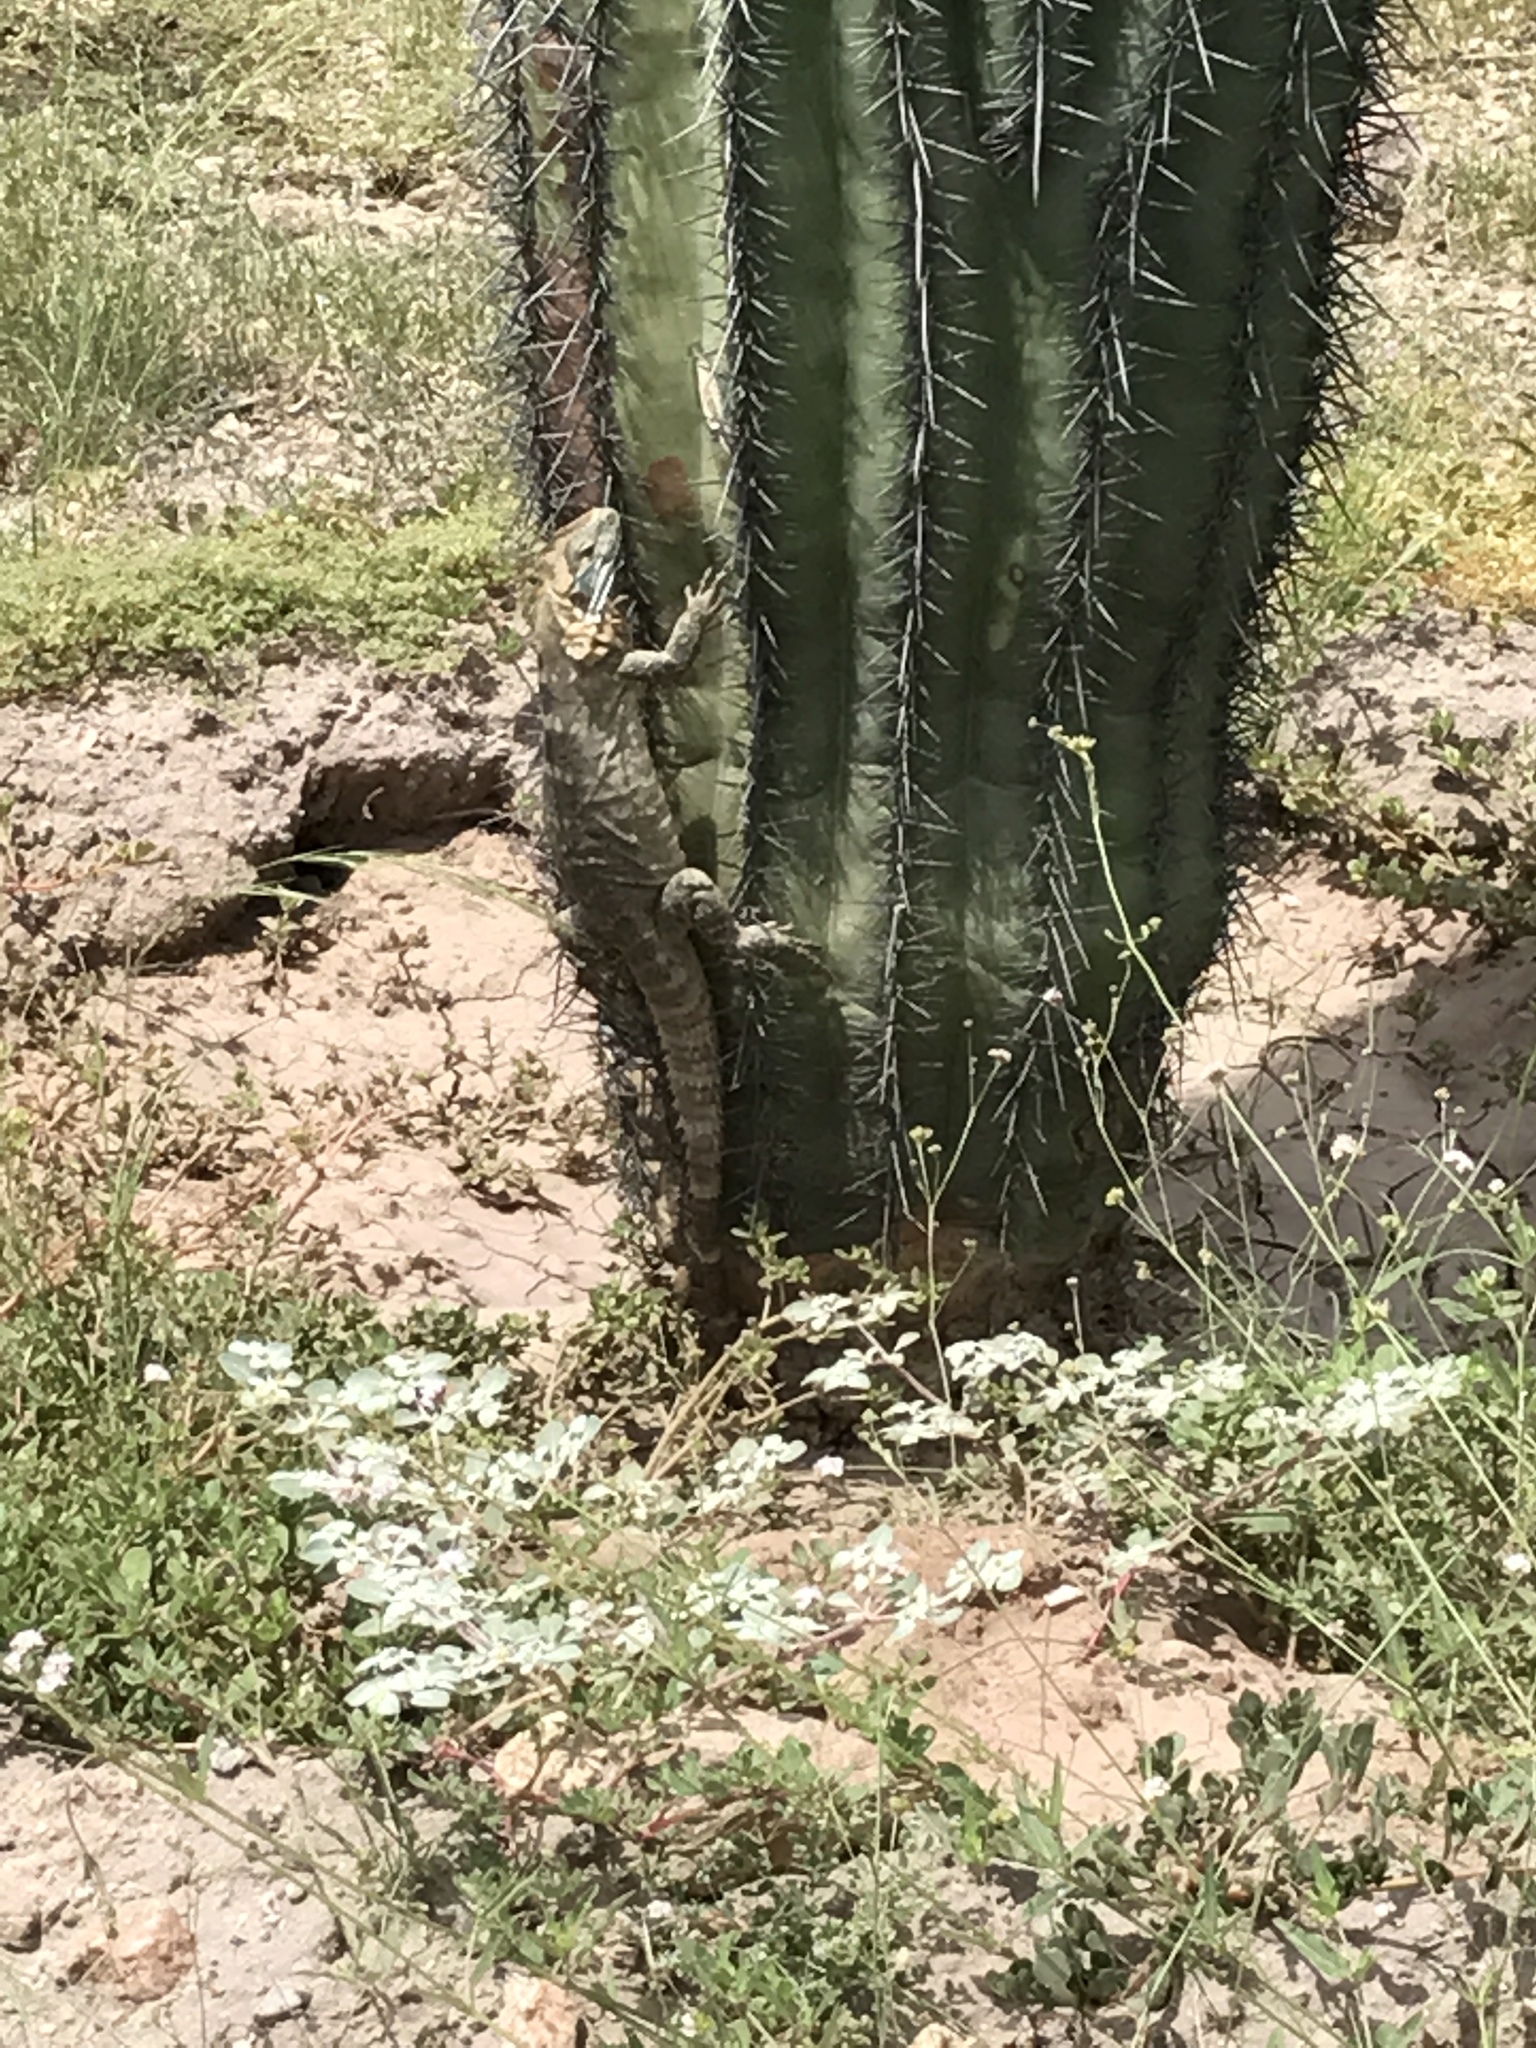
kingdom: Animalia
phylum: Chordata
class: Squamata
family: Iguanidae
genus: Ctenosaura
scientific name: Ctenosaura macrolopha
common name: Cape spinytail iguana
